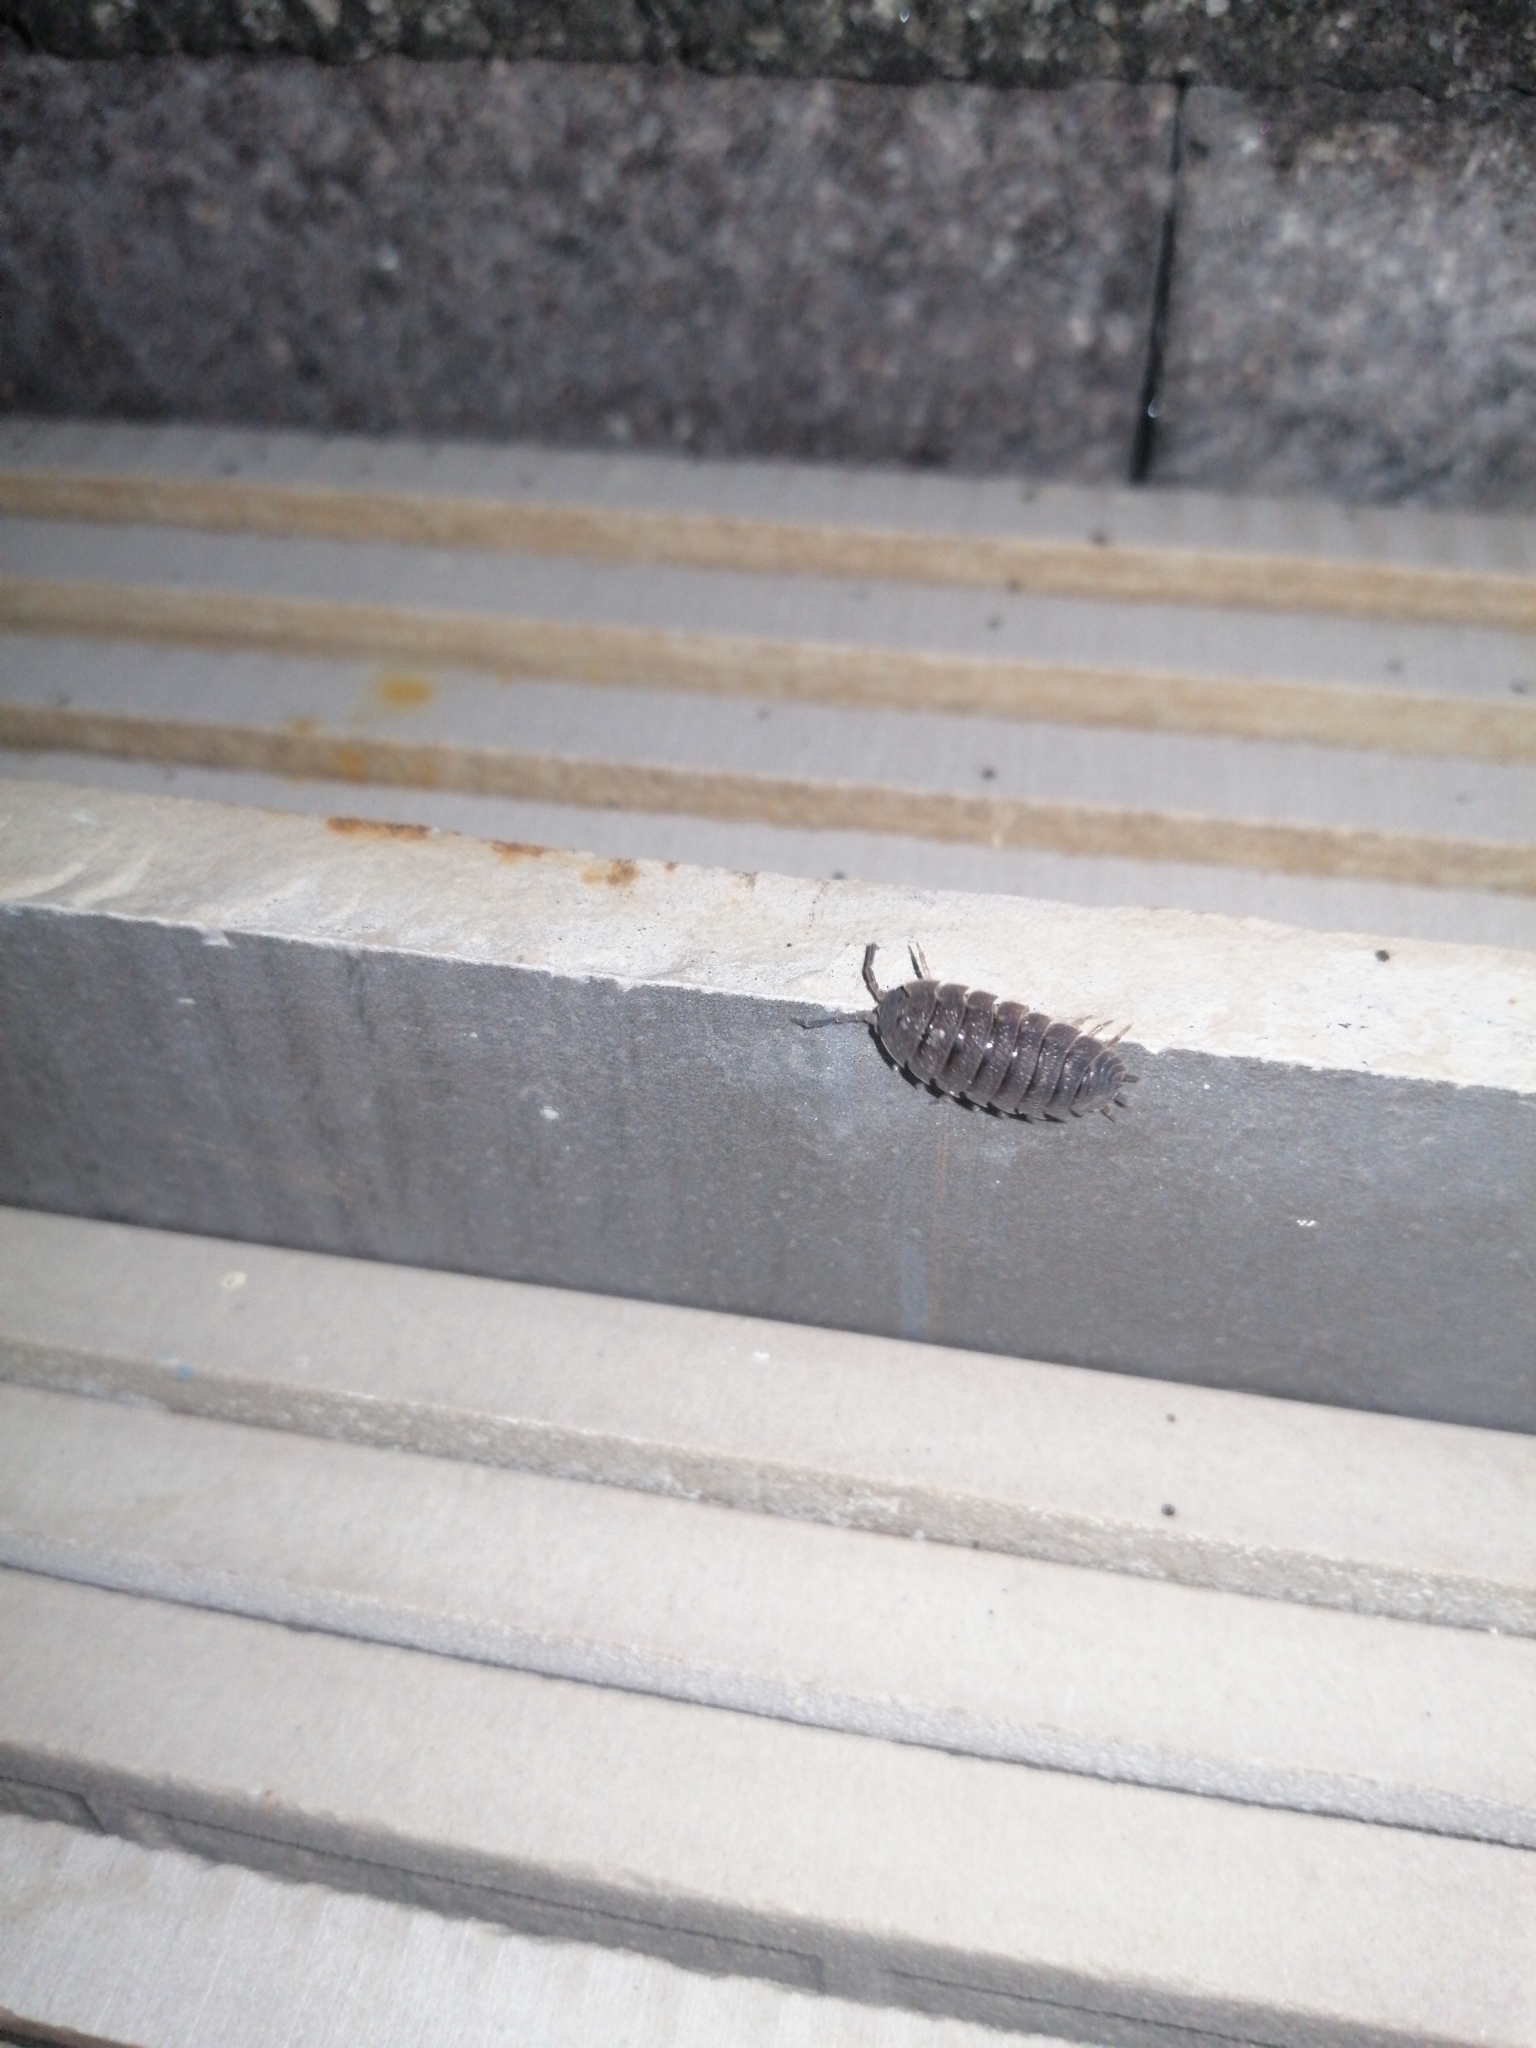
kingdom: Animalia
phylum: Arthropoda
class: Malacostraca
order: Isopoda
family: Porcellionidae
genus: Porcellio
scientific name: Porcellio scaber
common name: Common rough woodlouse
